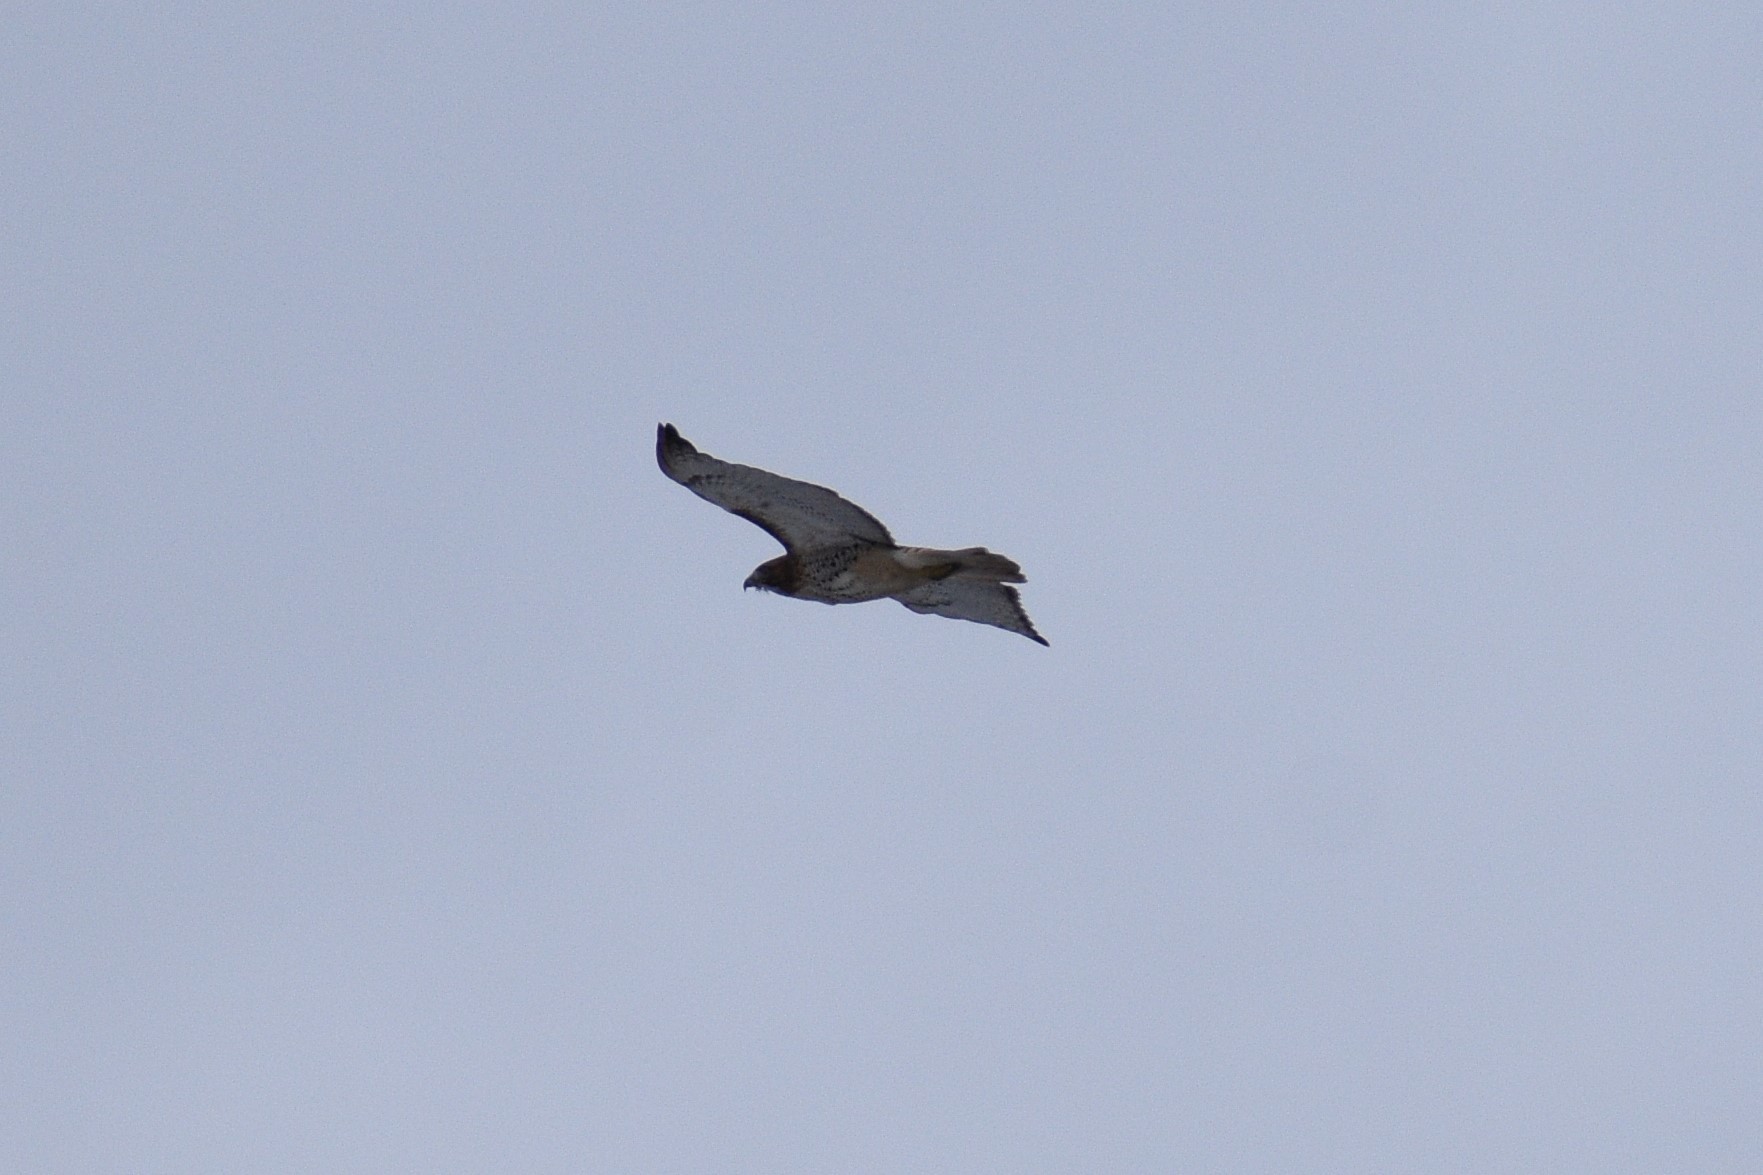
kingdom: Animalia
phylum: Chordata
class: Aves
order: Accipitriformes
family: Accipitridae
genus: Buteo
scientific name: Buteo jamaicensis
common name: Red-tailed hawk
